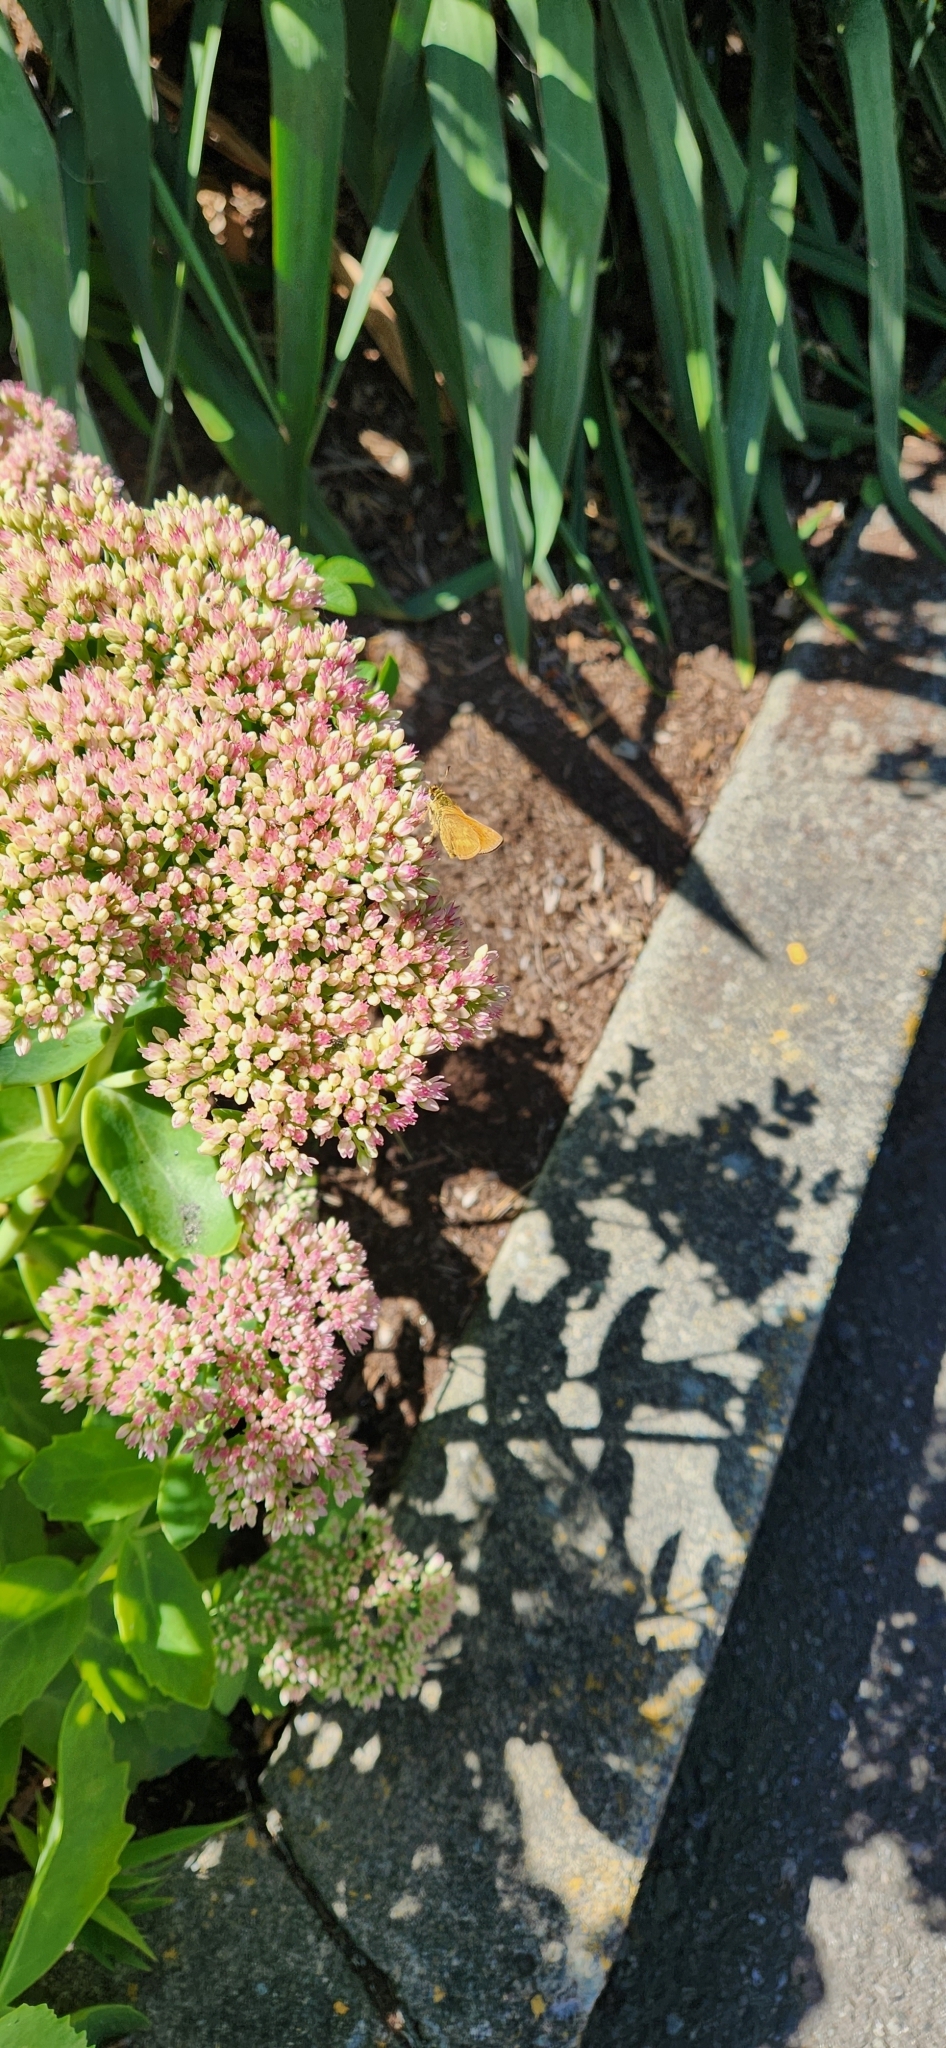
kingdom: Animalia
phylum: Arthropoda
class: Insecta
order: Lepidoptera
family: Hesperiidae
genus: Ochlodes
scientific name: Ochlodes sylvanoides
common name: Woodland skipper
